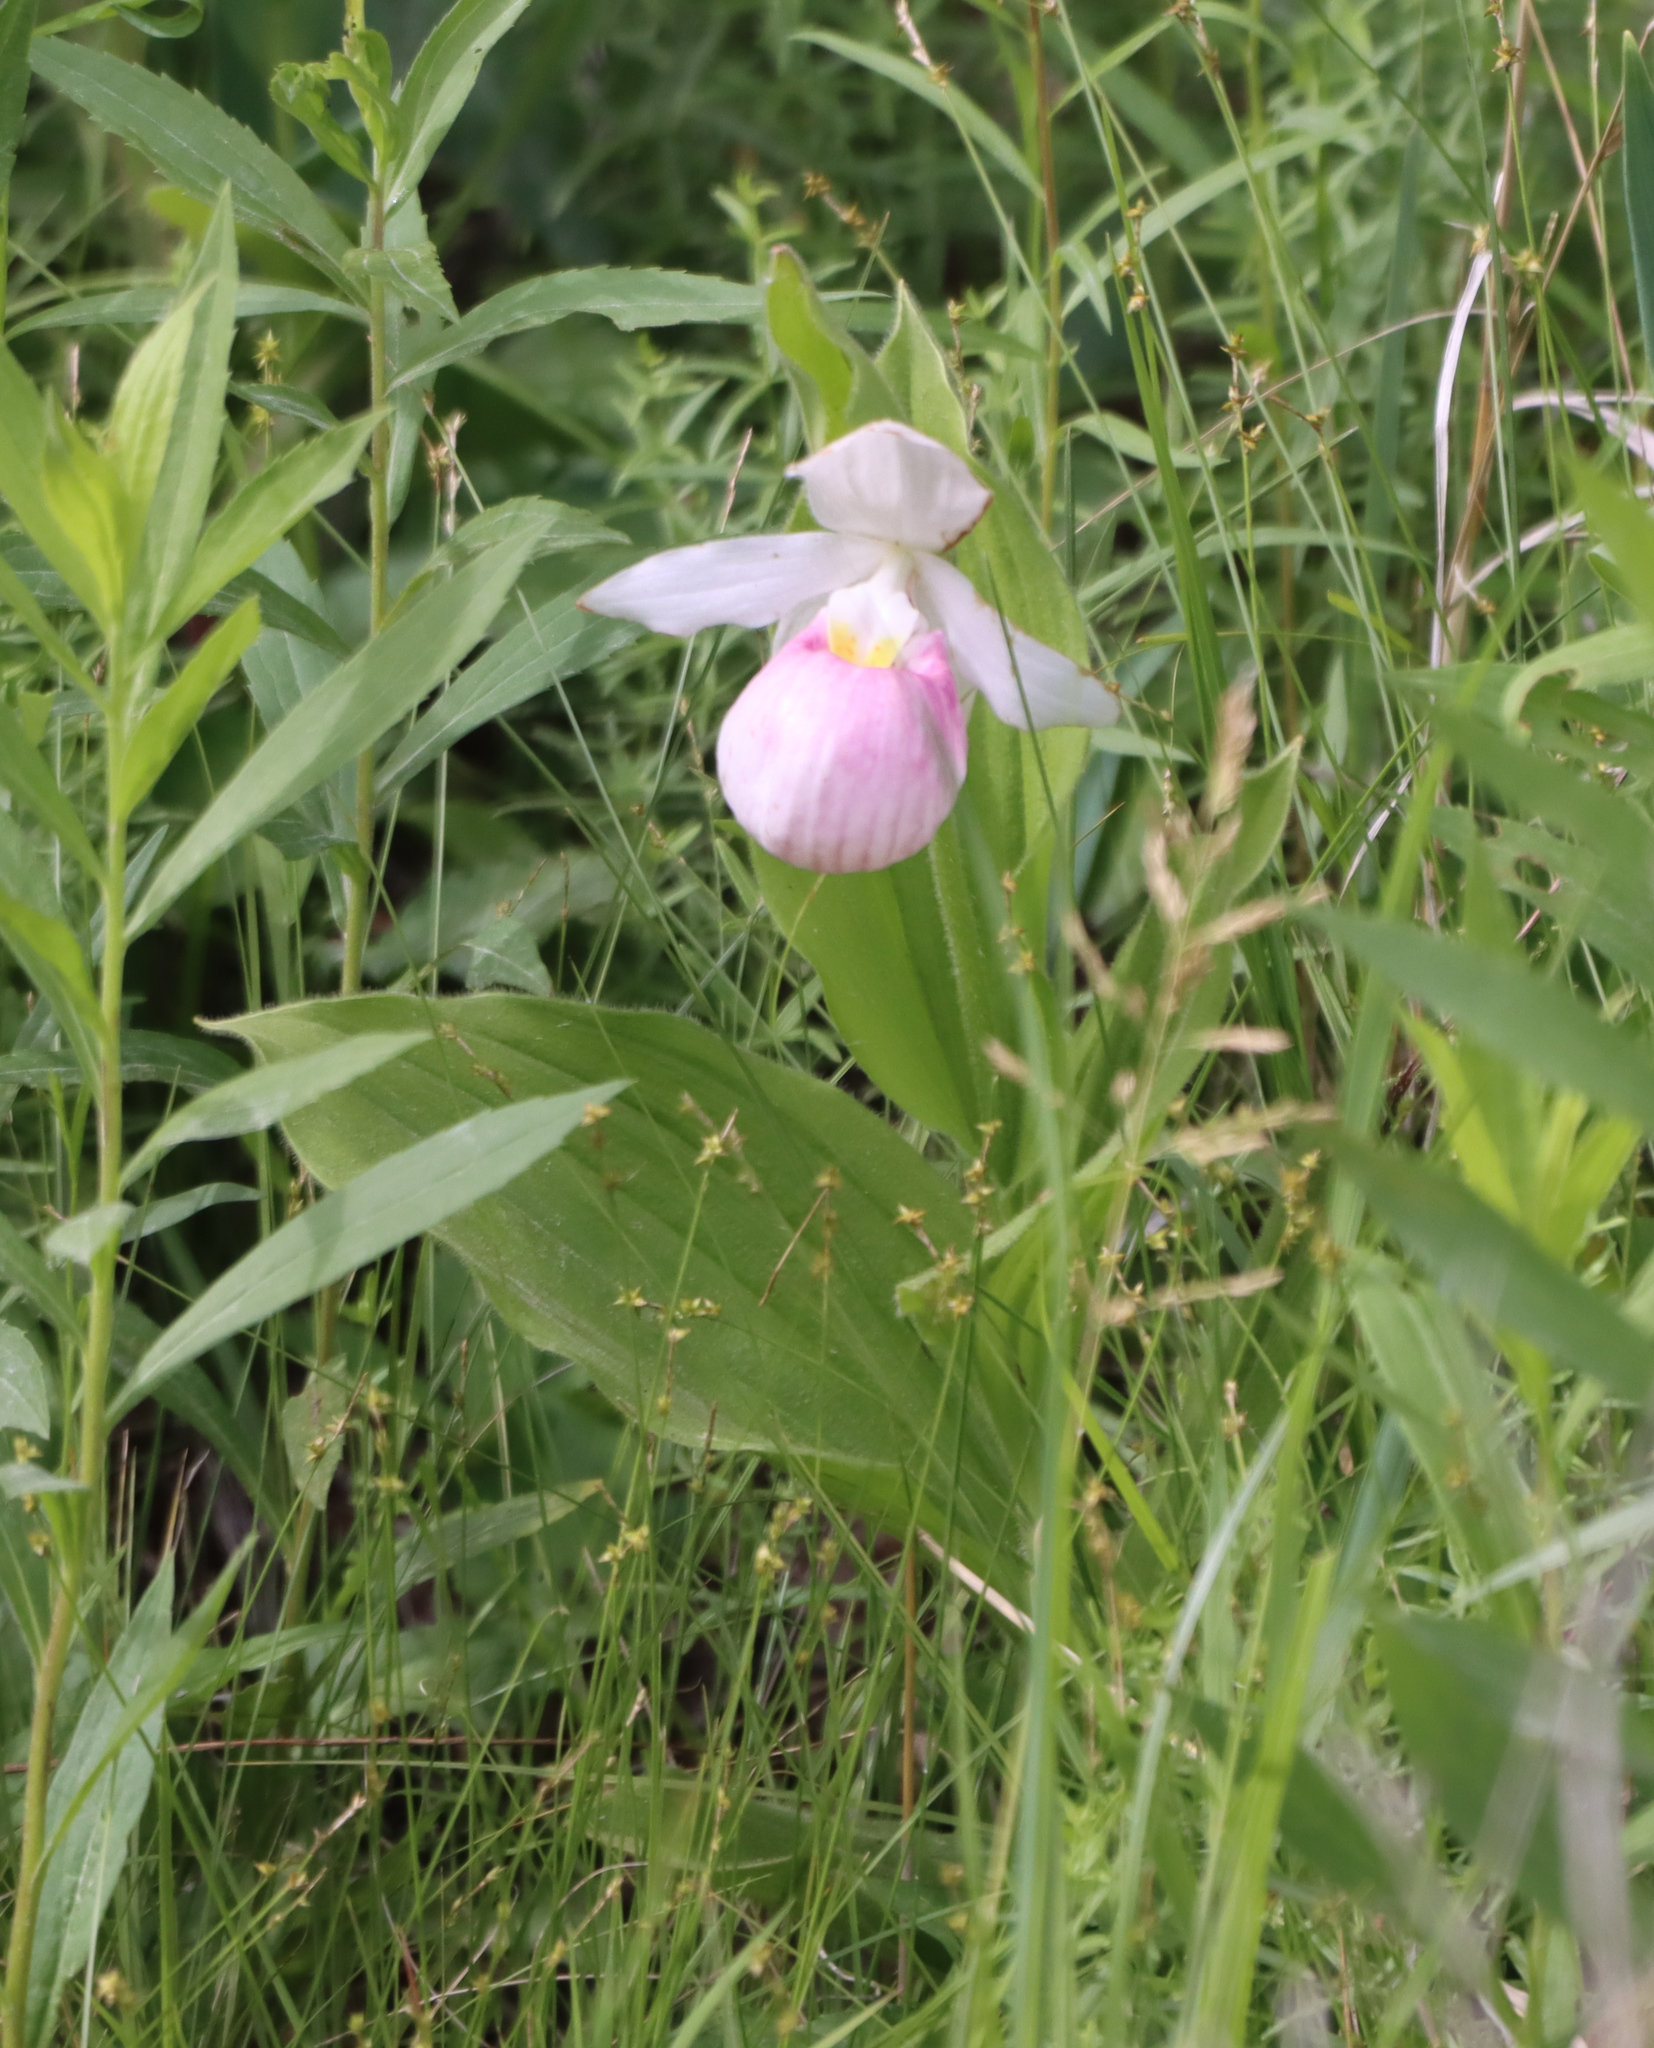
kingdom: Plantae
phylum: Tracheophyta
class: Liliopsida
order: Asparagales
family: Orchidaceae
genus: Cypripedium
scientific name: Cypripedium reginae
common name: Queen lady's-slipper
